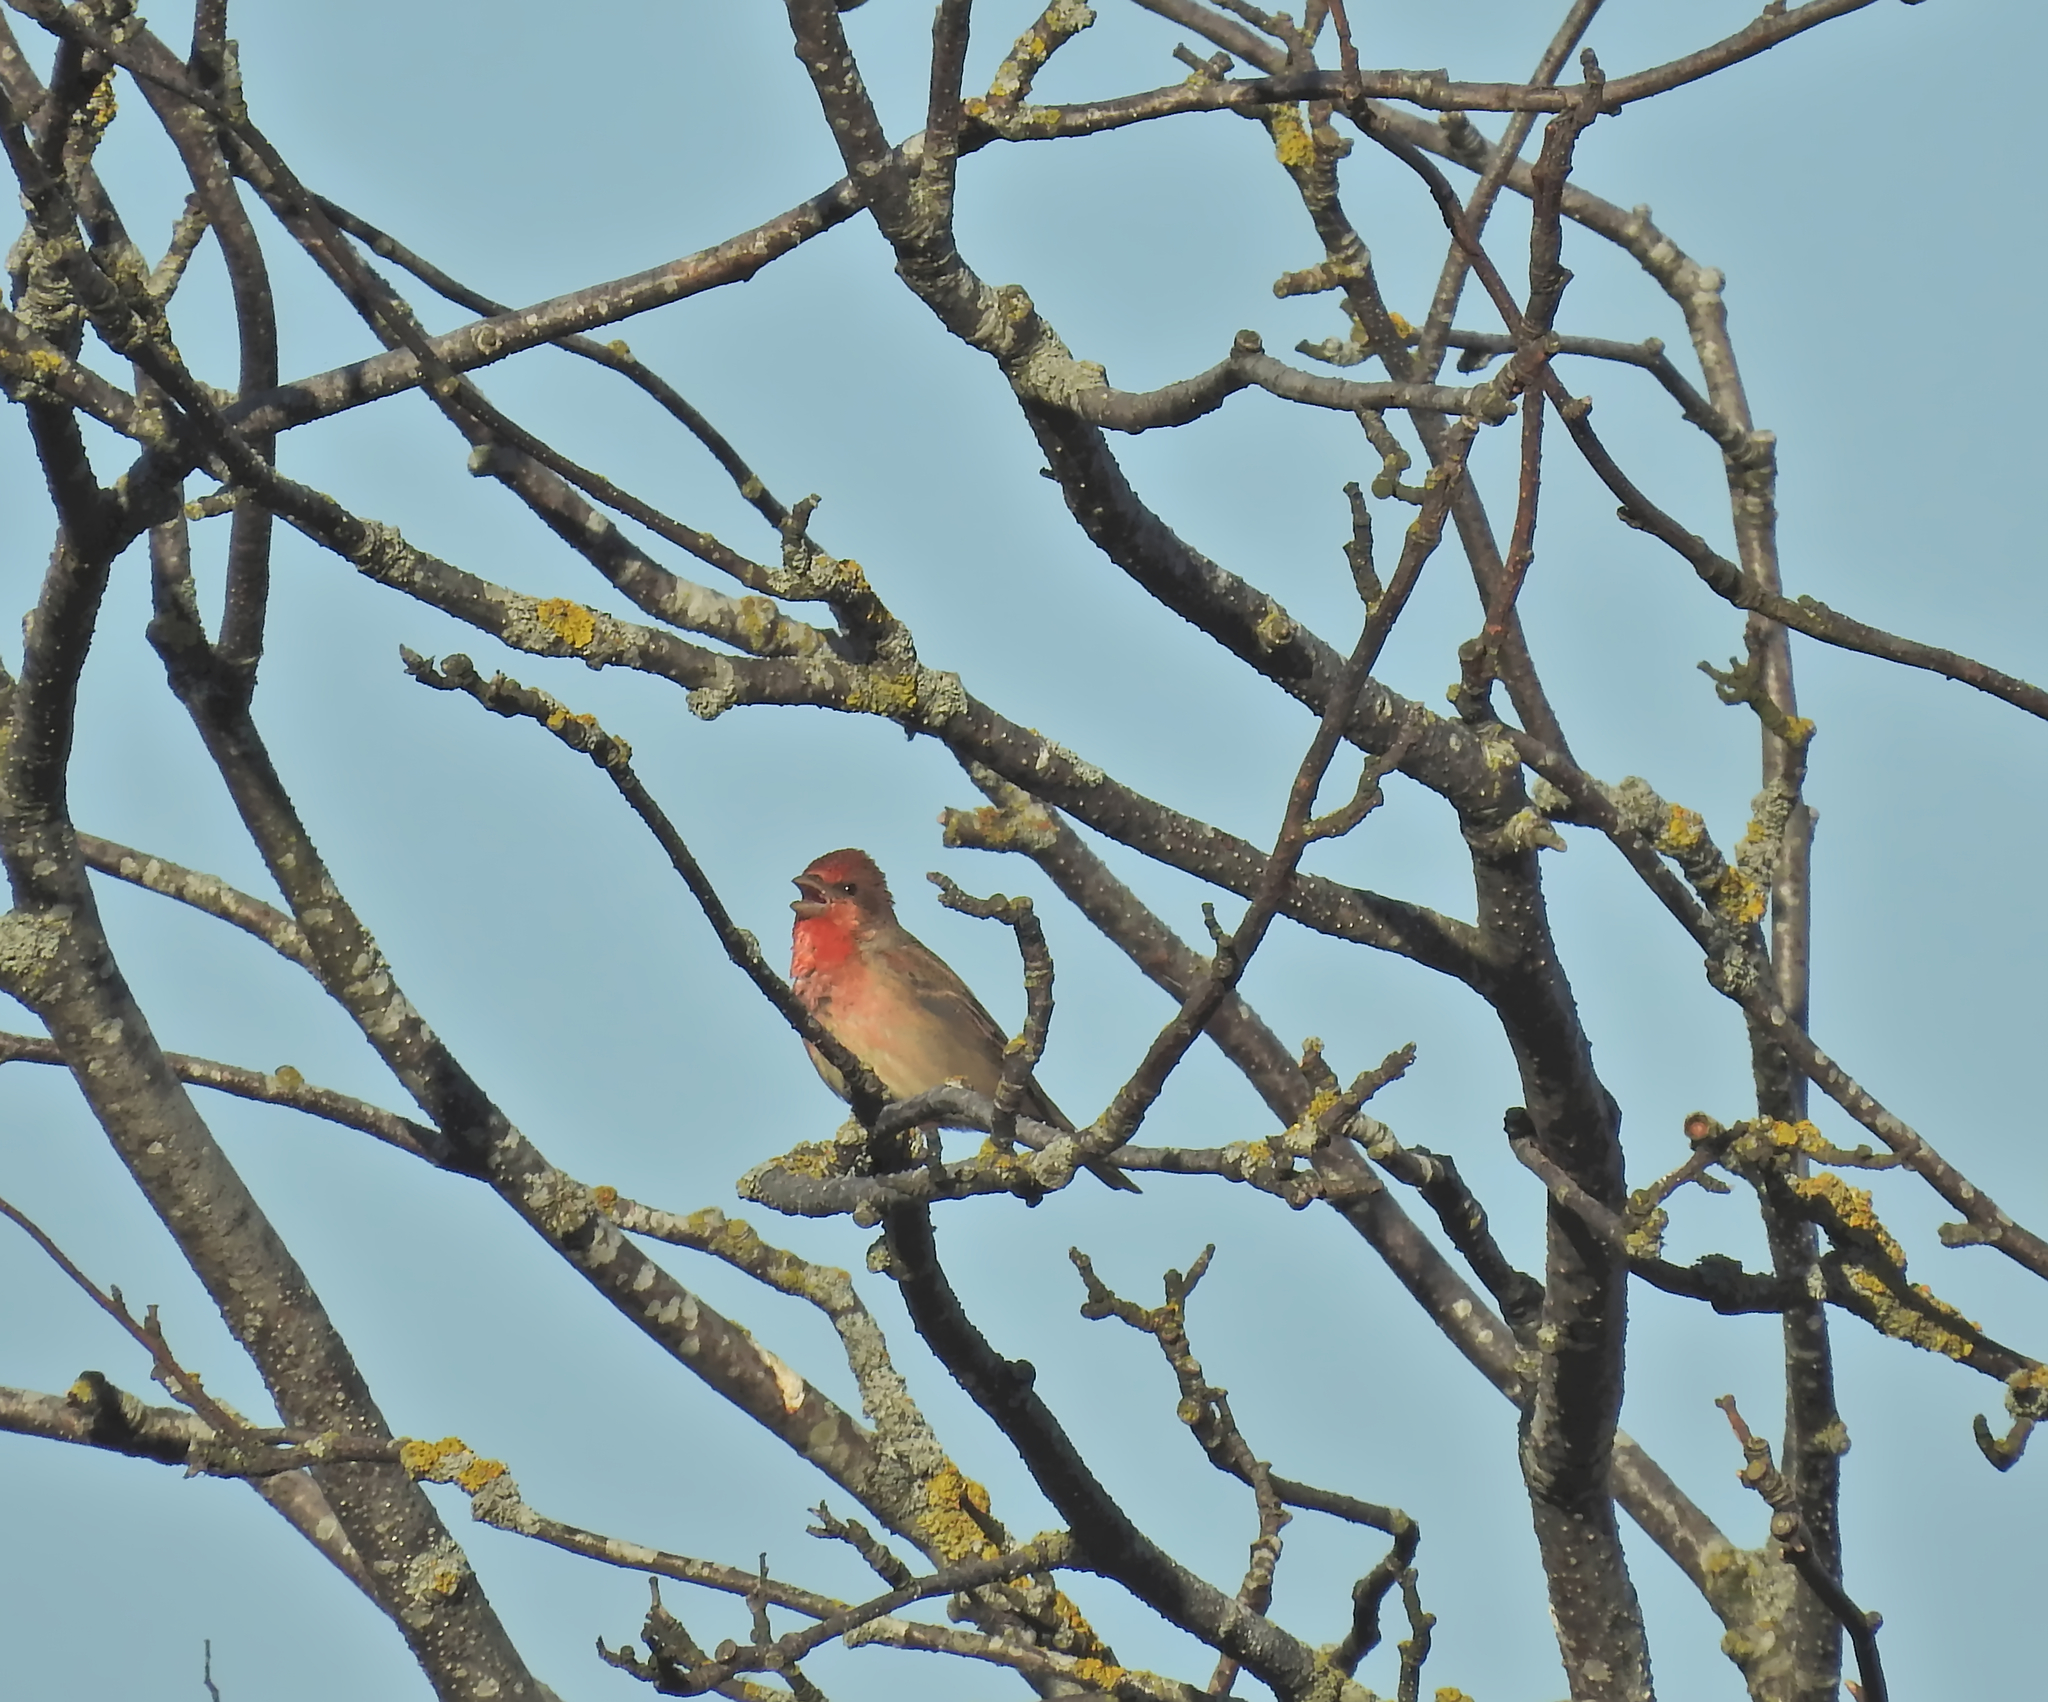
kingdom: Animalia
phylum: Chordata
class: Aves
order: Passeriformes
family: Fringillidae
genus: Carpodacus
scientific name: Carpodacus erythrinus
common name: Common rosefinch
